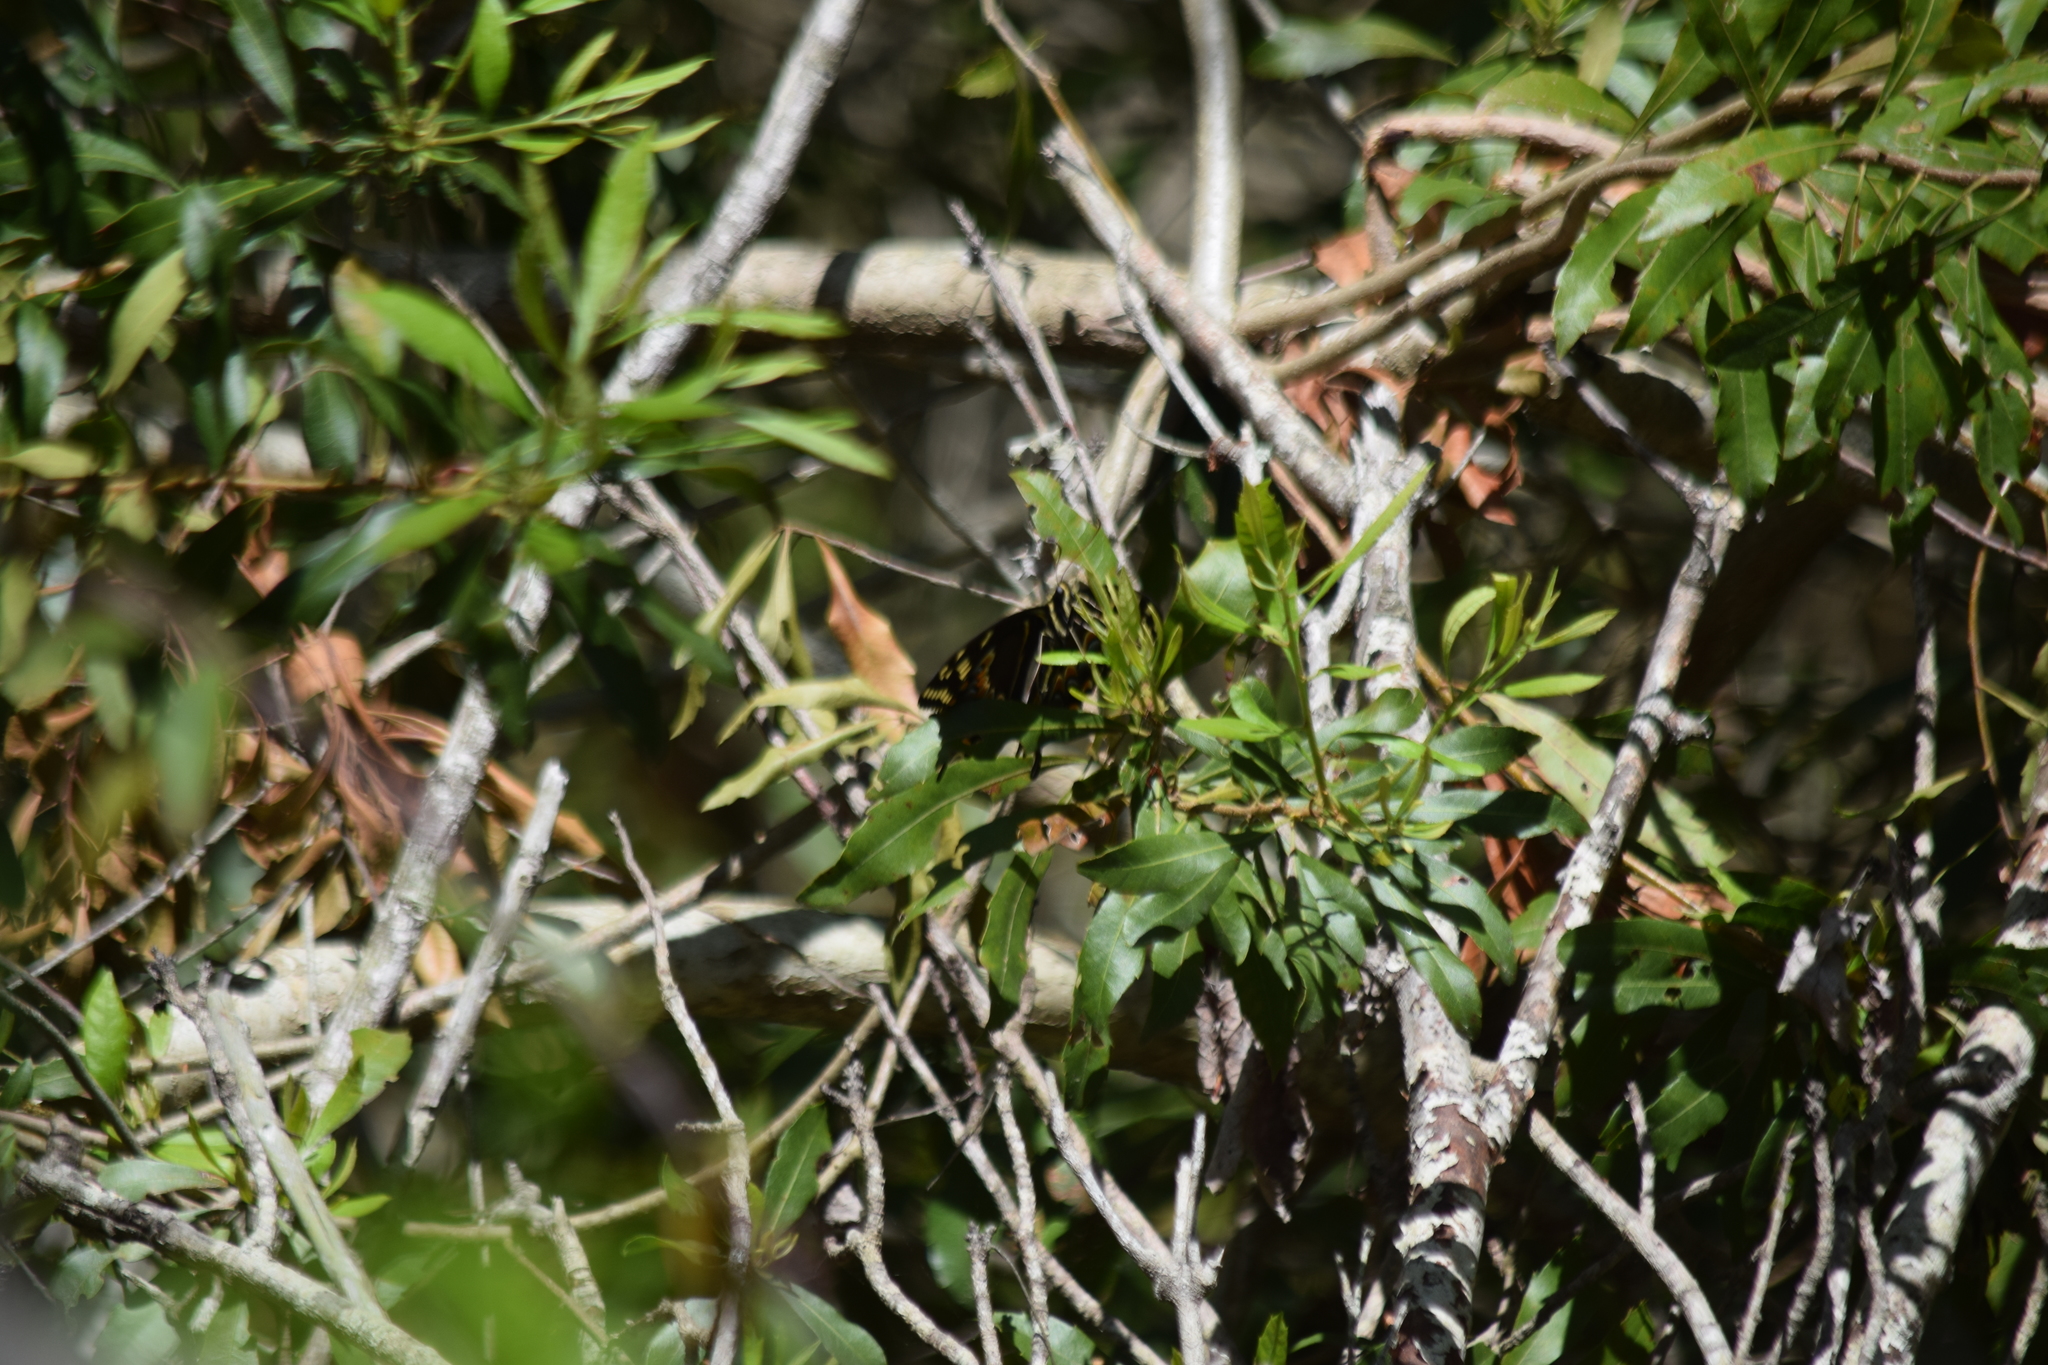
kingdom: Animalia
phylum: Arthropoda
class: Insecta
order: Lepidoptera
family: Papilionidae
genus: Papilio
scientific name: Papilio palamedes
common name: Palamedes swallowtail
